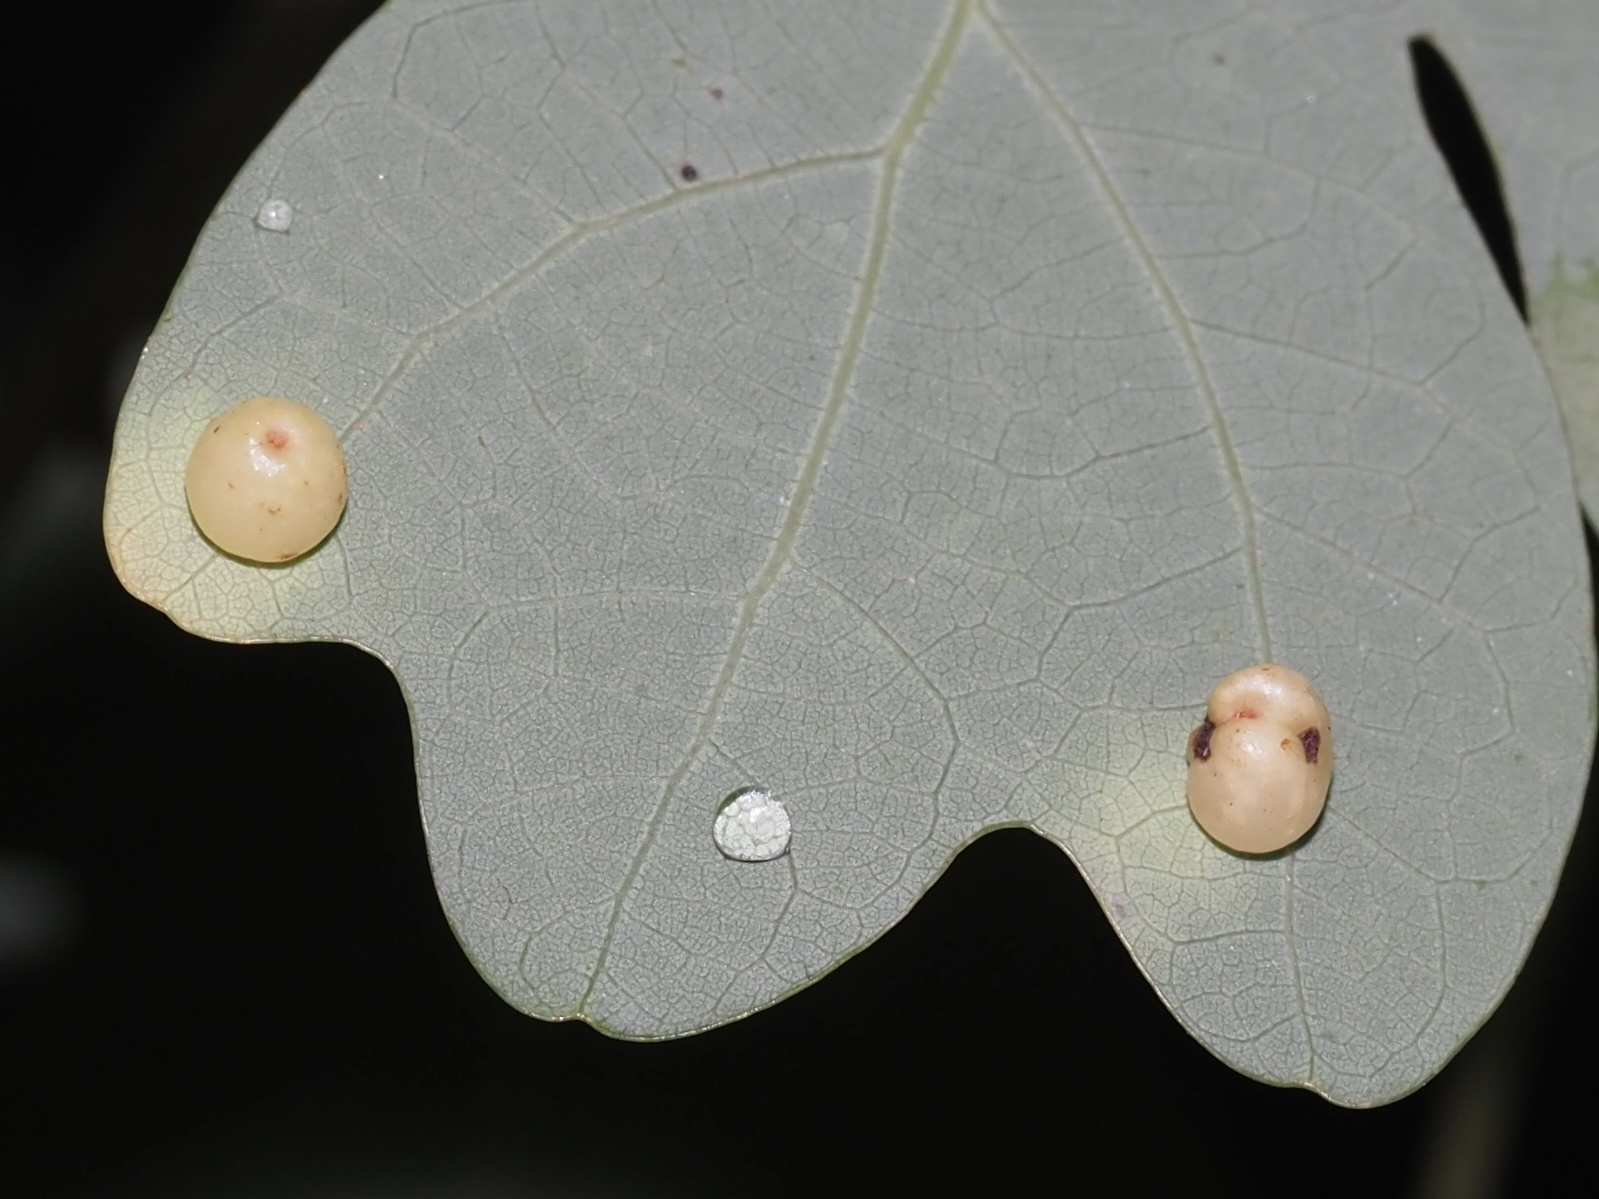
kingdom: Animalia
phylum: Arthropoda
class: Insecta
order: Hymenoptera
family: Cynipidae
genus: Andricus
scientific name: Andricus
